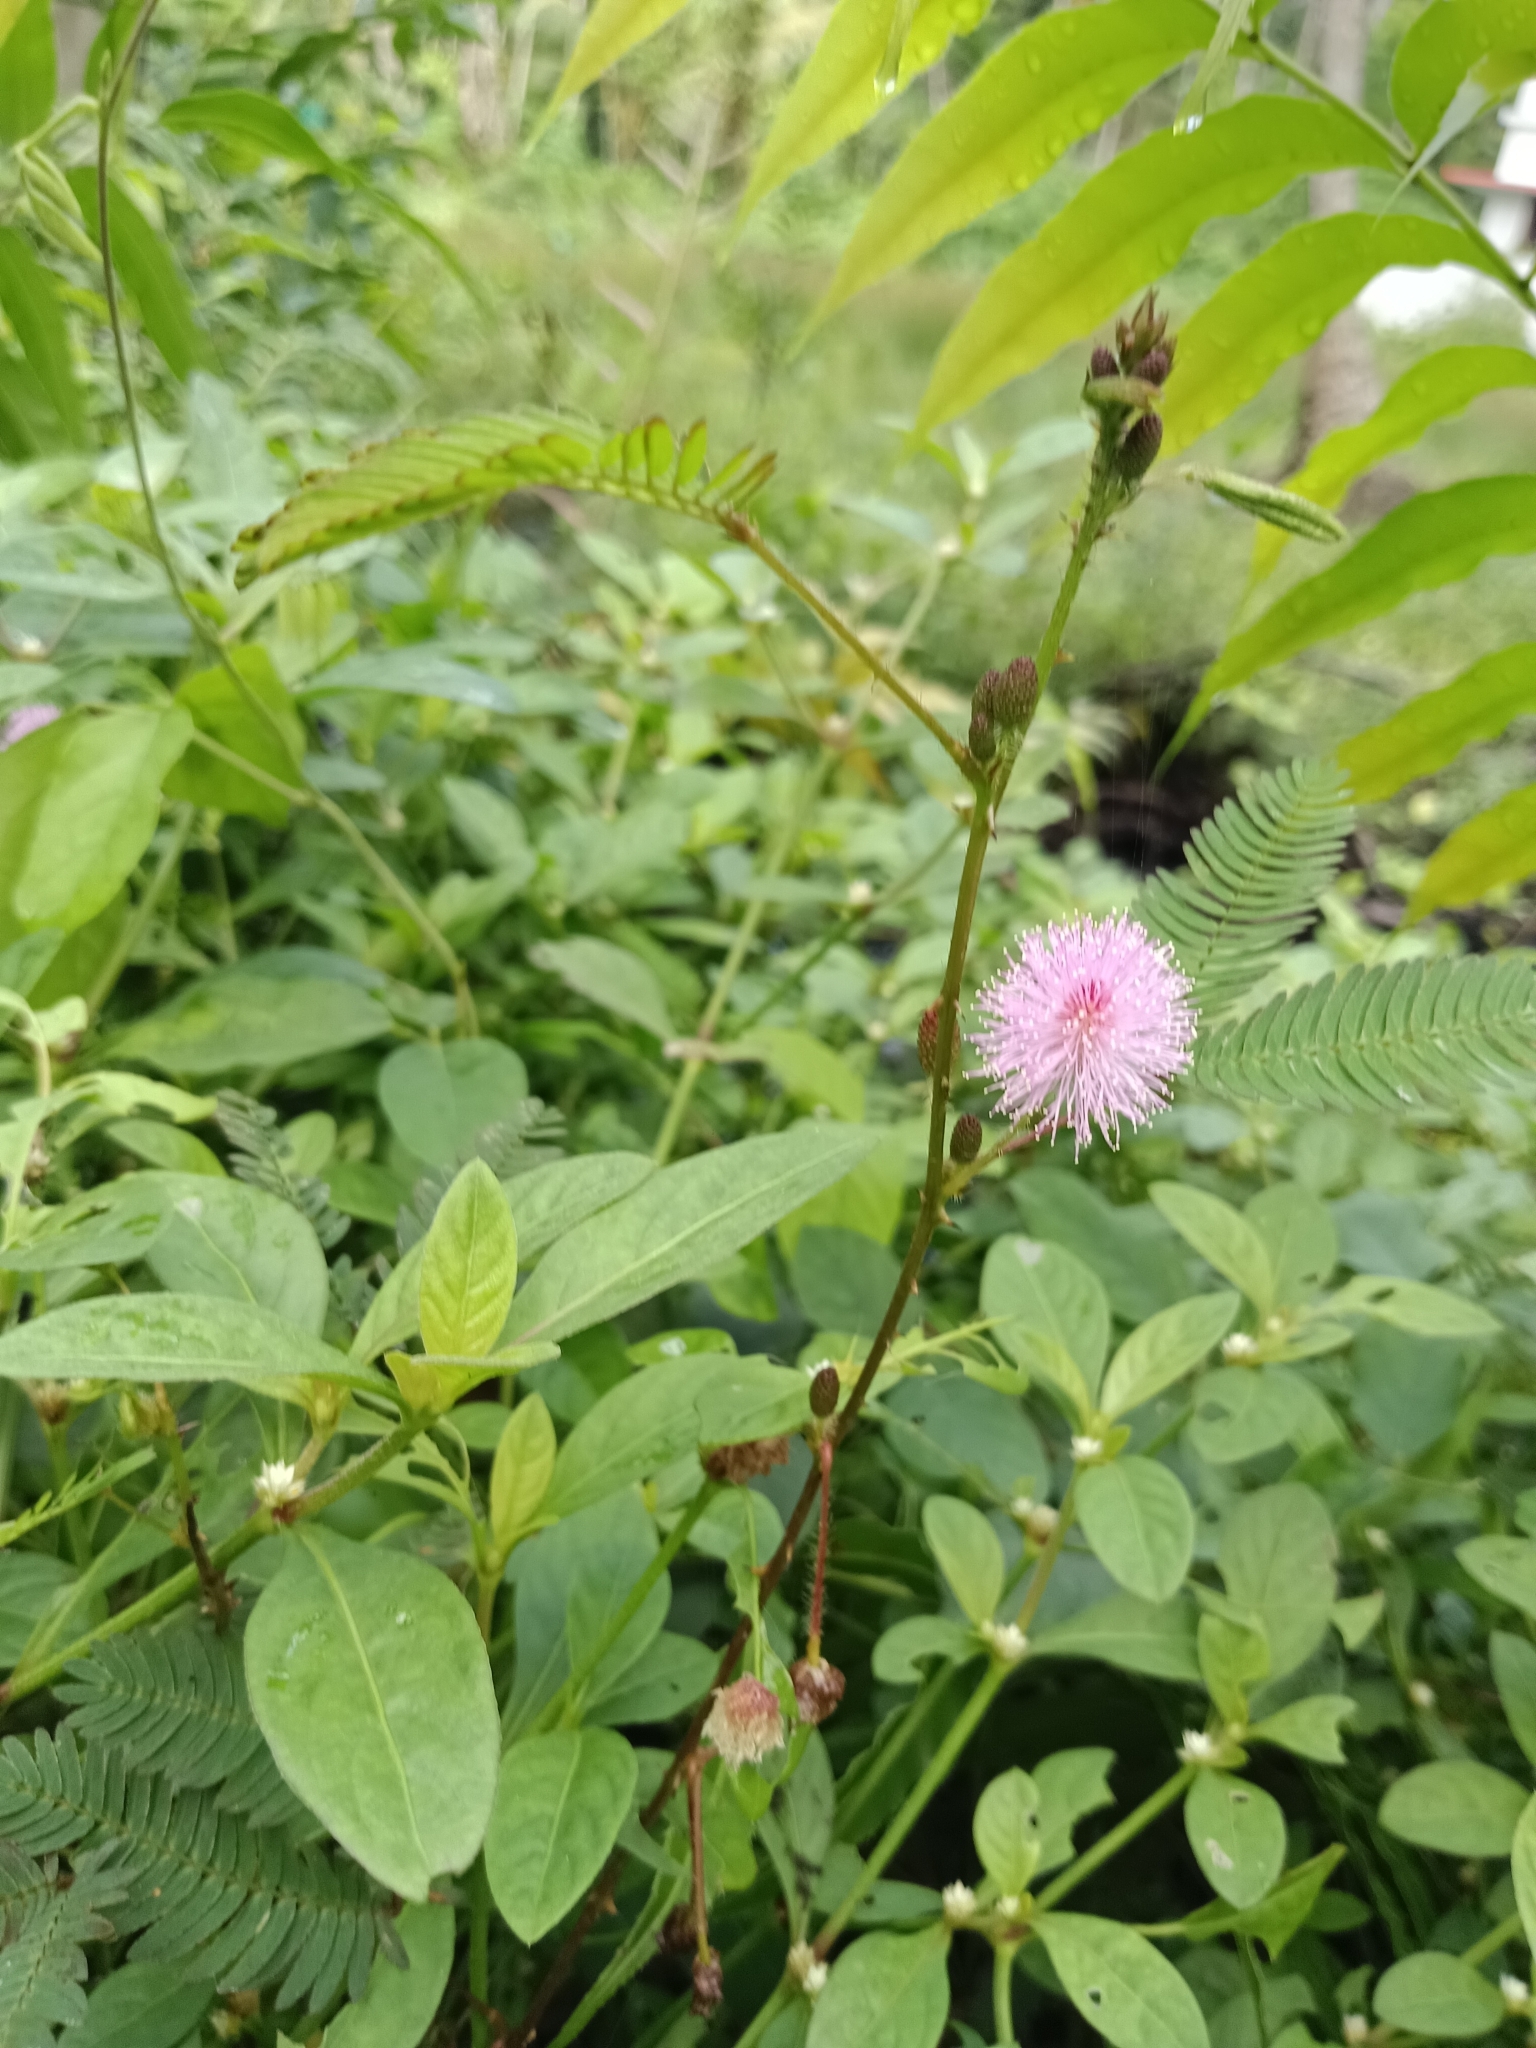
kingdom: Plantae
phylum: Tracheophyta
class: Magnoliopsida
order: Fabales
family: Fabaceae
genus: Mimosa
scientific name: Mimosa pudica
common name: Sensitive plant
